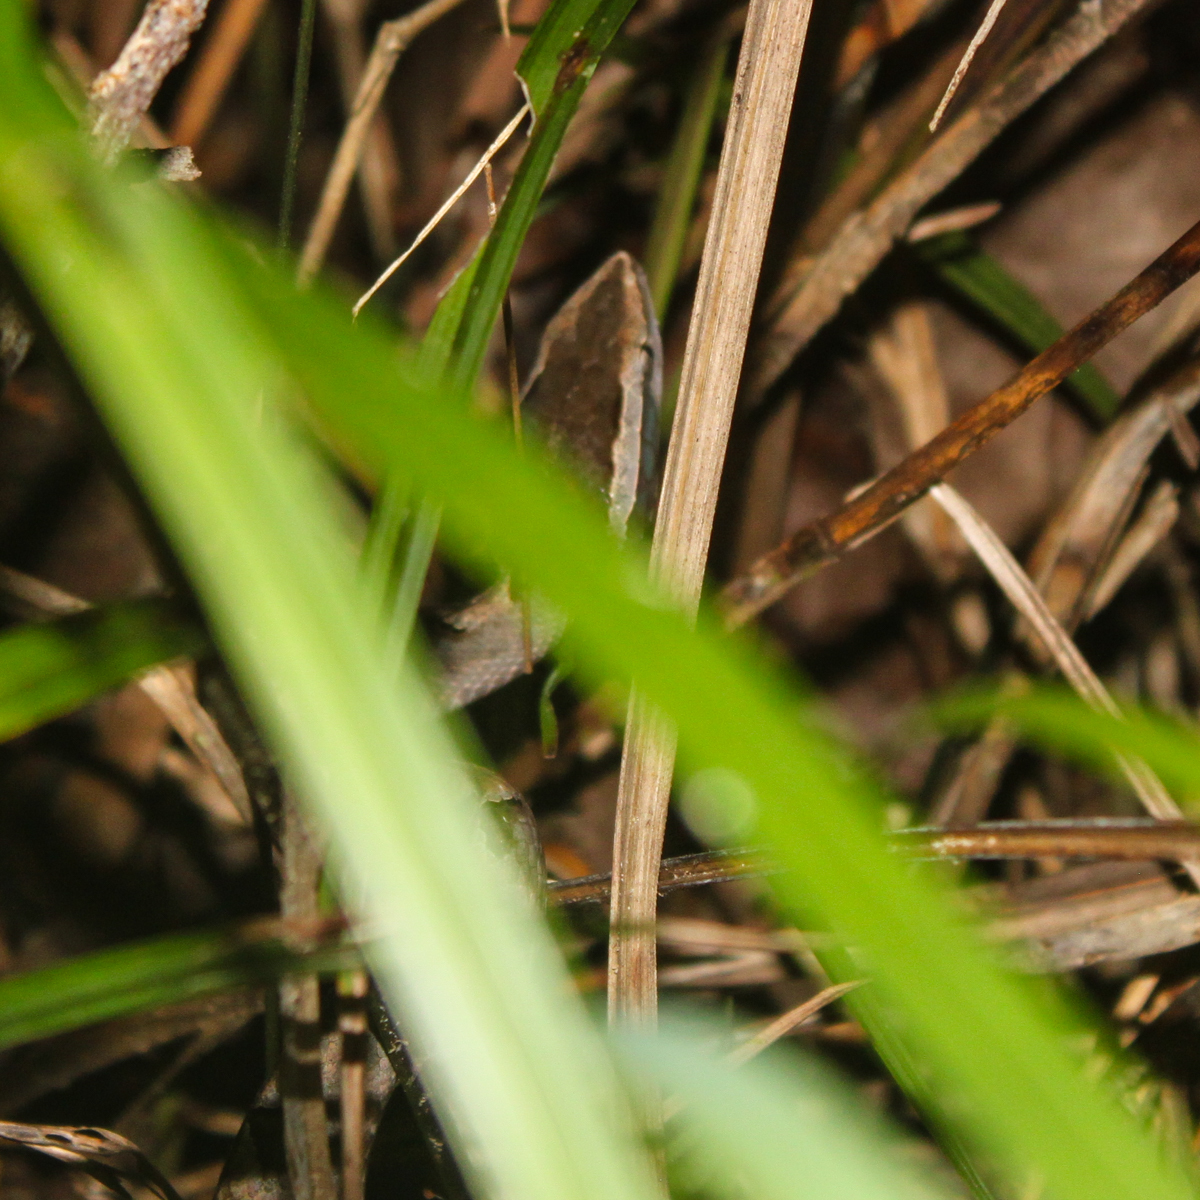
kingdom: Animalia
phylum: Chordata
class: Squamata
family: Viperidae
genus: Calloselasma
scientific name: Calloselasma rhodostoma
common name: Malayan pit viper
